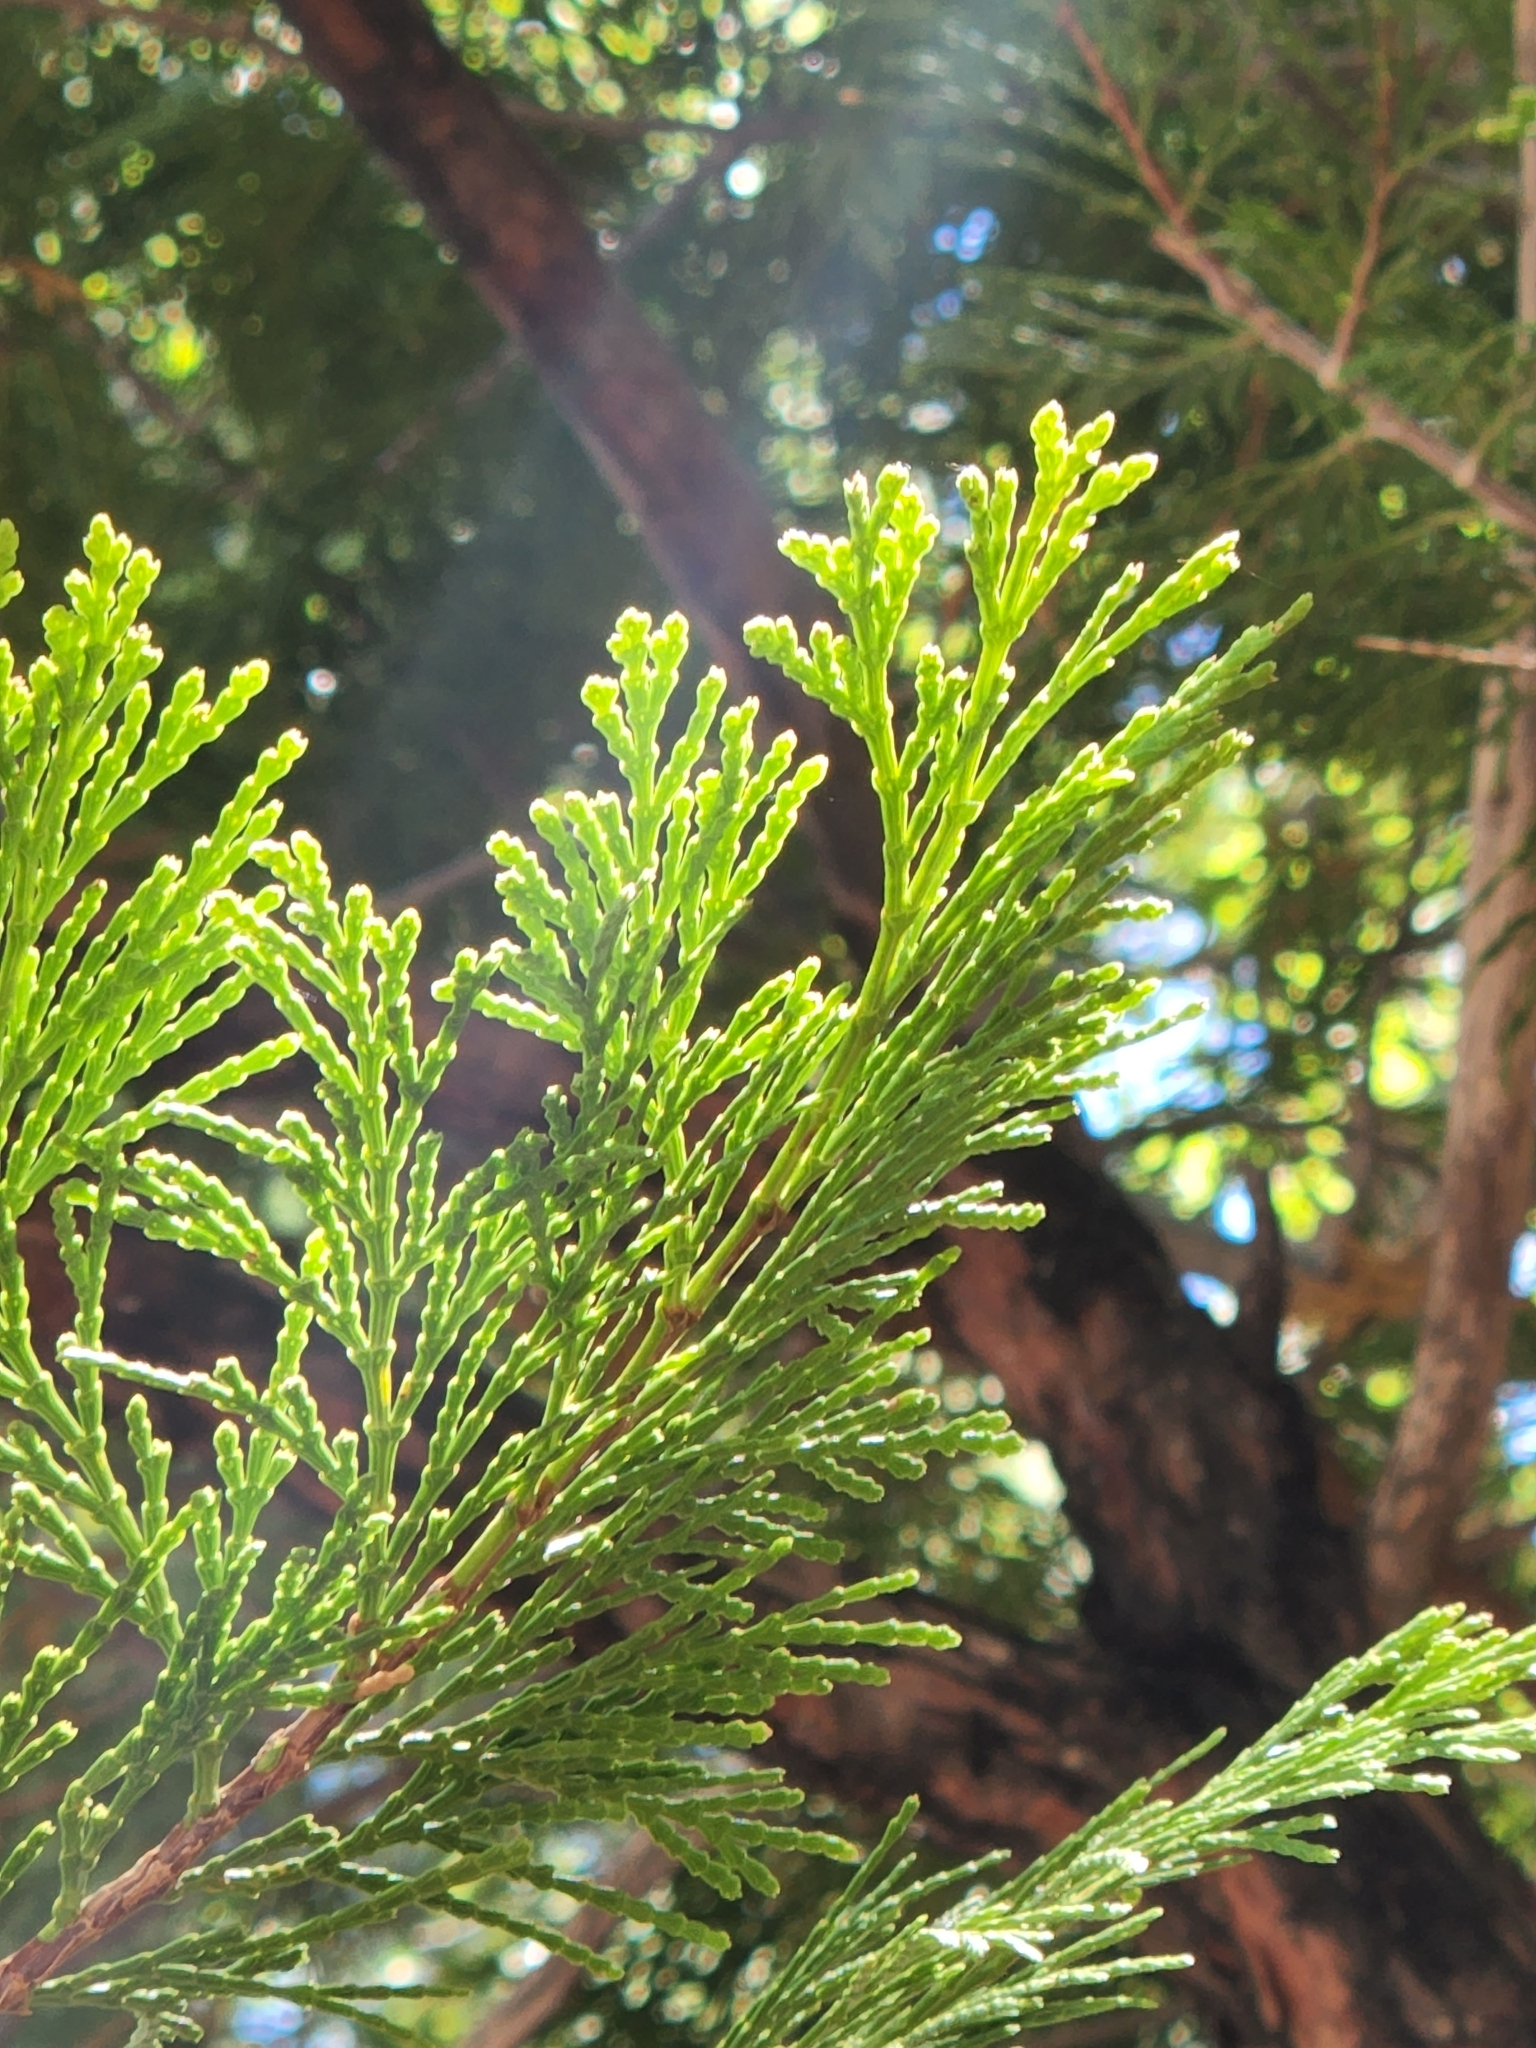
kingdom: Plantae
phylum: Tracheophyta
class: Pinopsida
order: Pinales
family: Cupressaceae
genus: Calocedrus
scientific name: Calocedrus decurrens
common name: Californian incense-cedar
